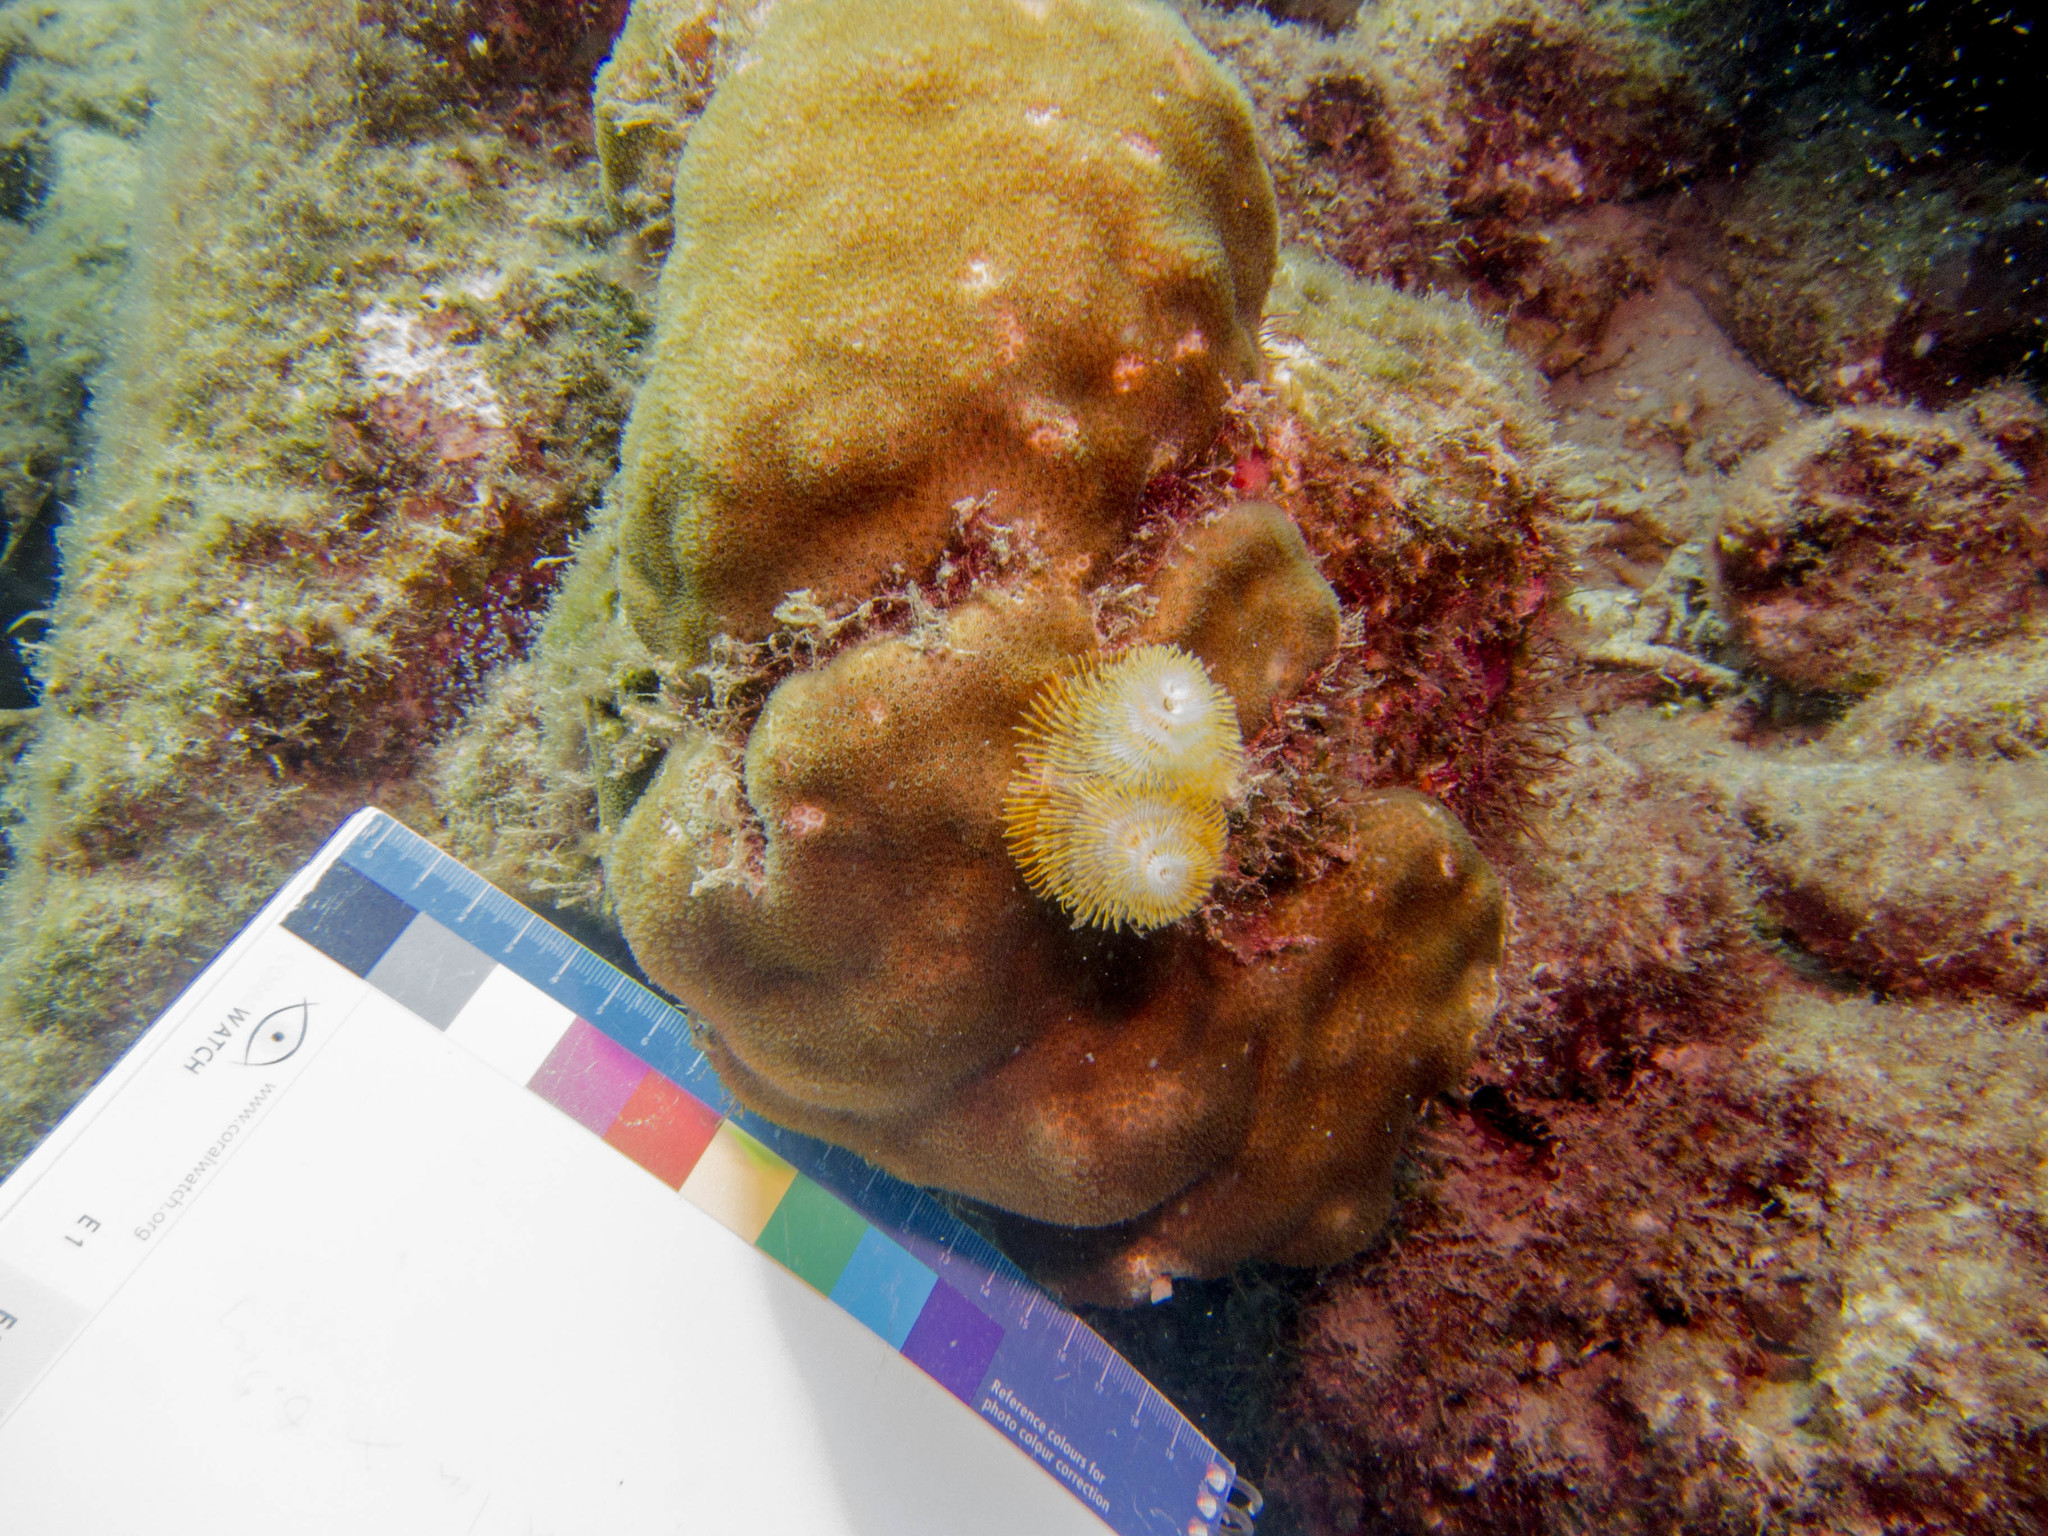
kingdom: Animalia
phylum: Annelida
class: Polychaeta
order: Sabellida
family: Serpulidae
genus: Spirobranchus
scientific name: Spirobranchus giganteus
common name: Christmas tree worm
